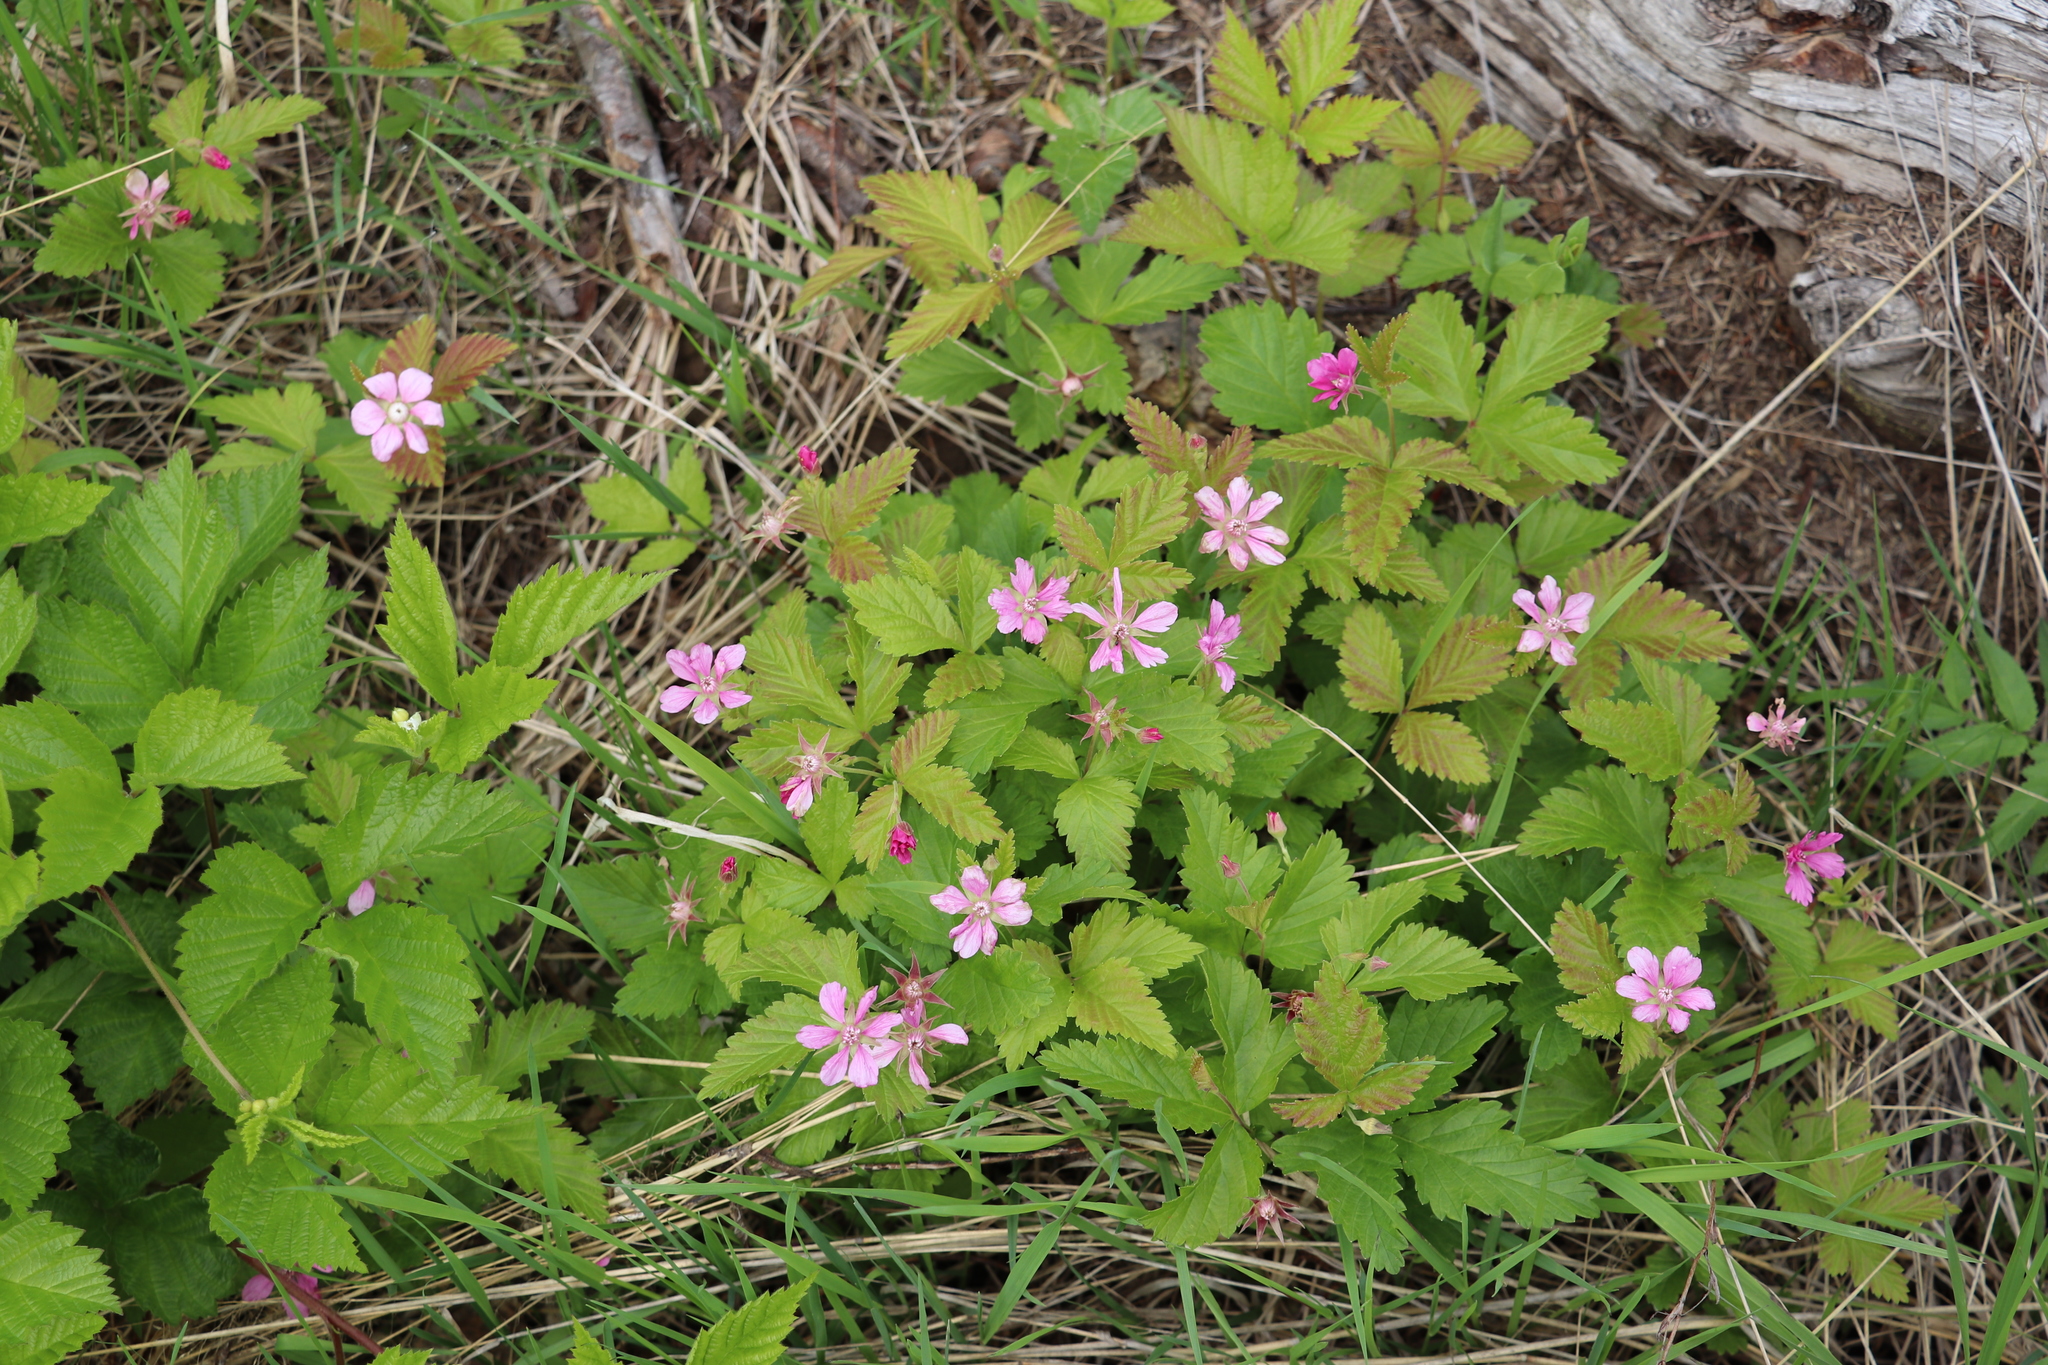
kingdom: Plantae
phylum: Tracheophyta
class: Magnoliopsida
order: Rosales
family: Rosaceae
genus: Rubus
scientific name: Rubus arcticus
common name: Arctic bramble
